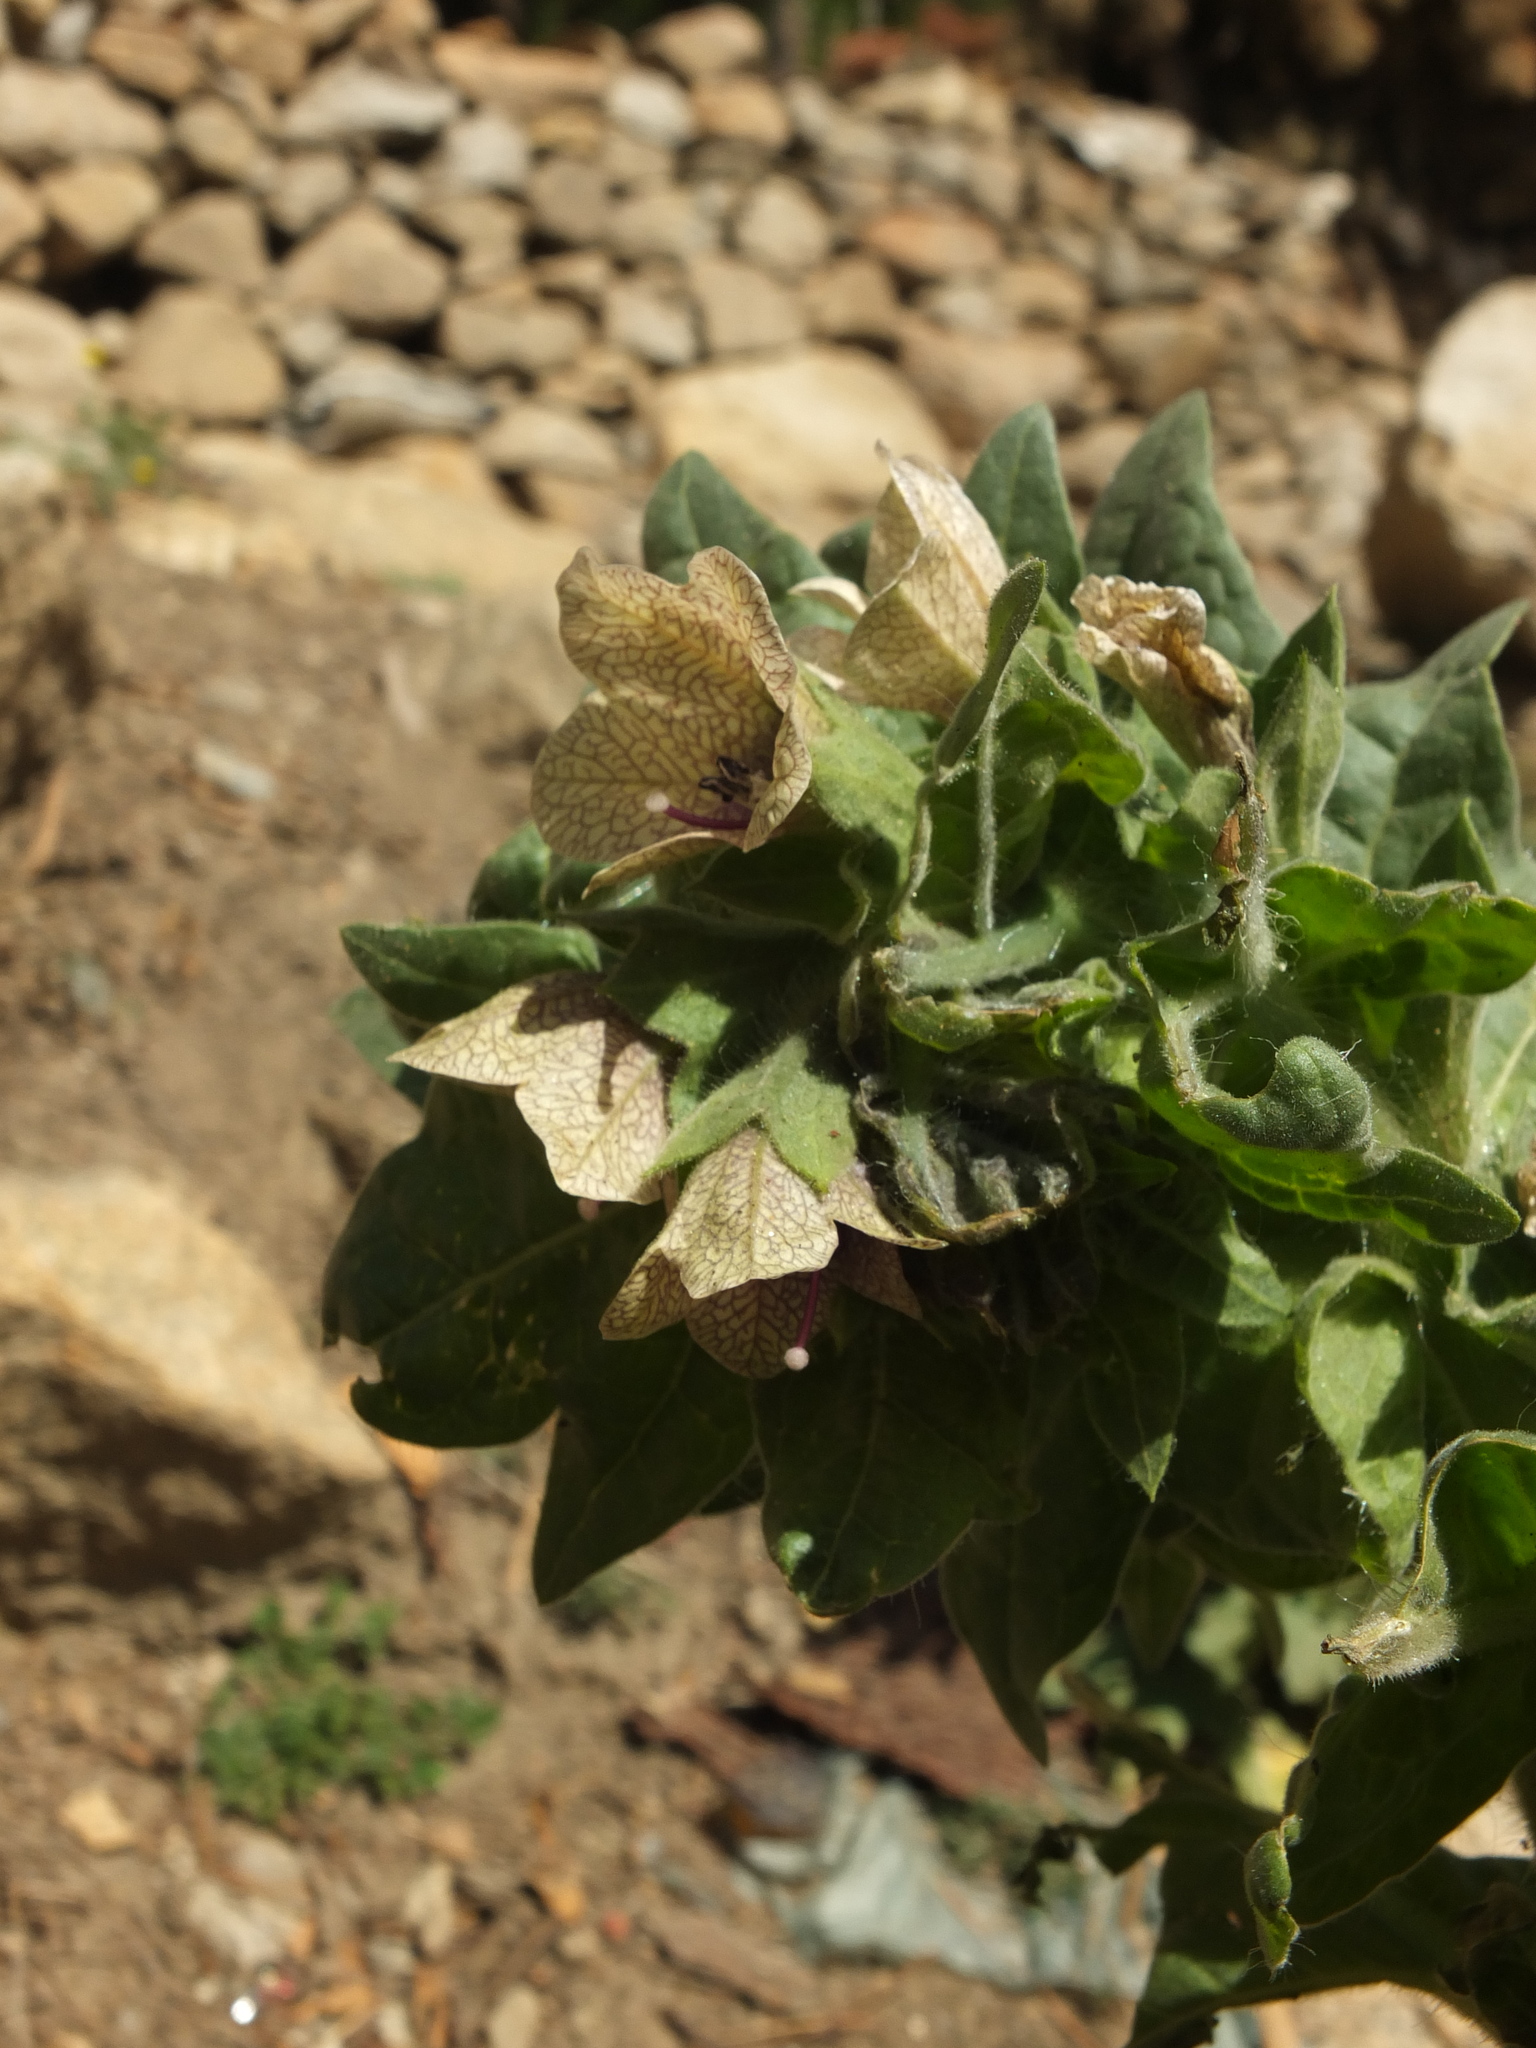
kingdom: Plantae
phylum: Tracheophyta
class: Magnoliopsida
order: Solanales
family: Solanaceae
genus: Hyoscyamus
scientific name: Hyoscyamus niger
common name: Henbane
